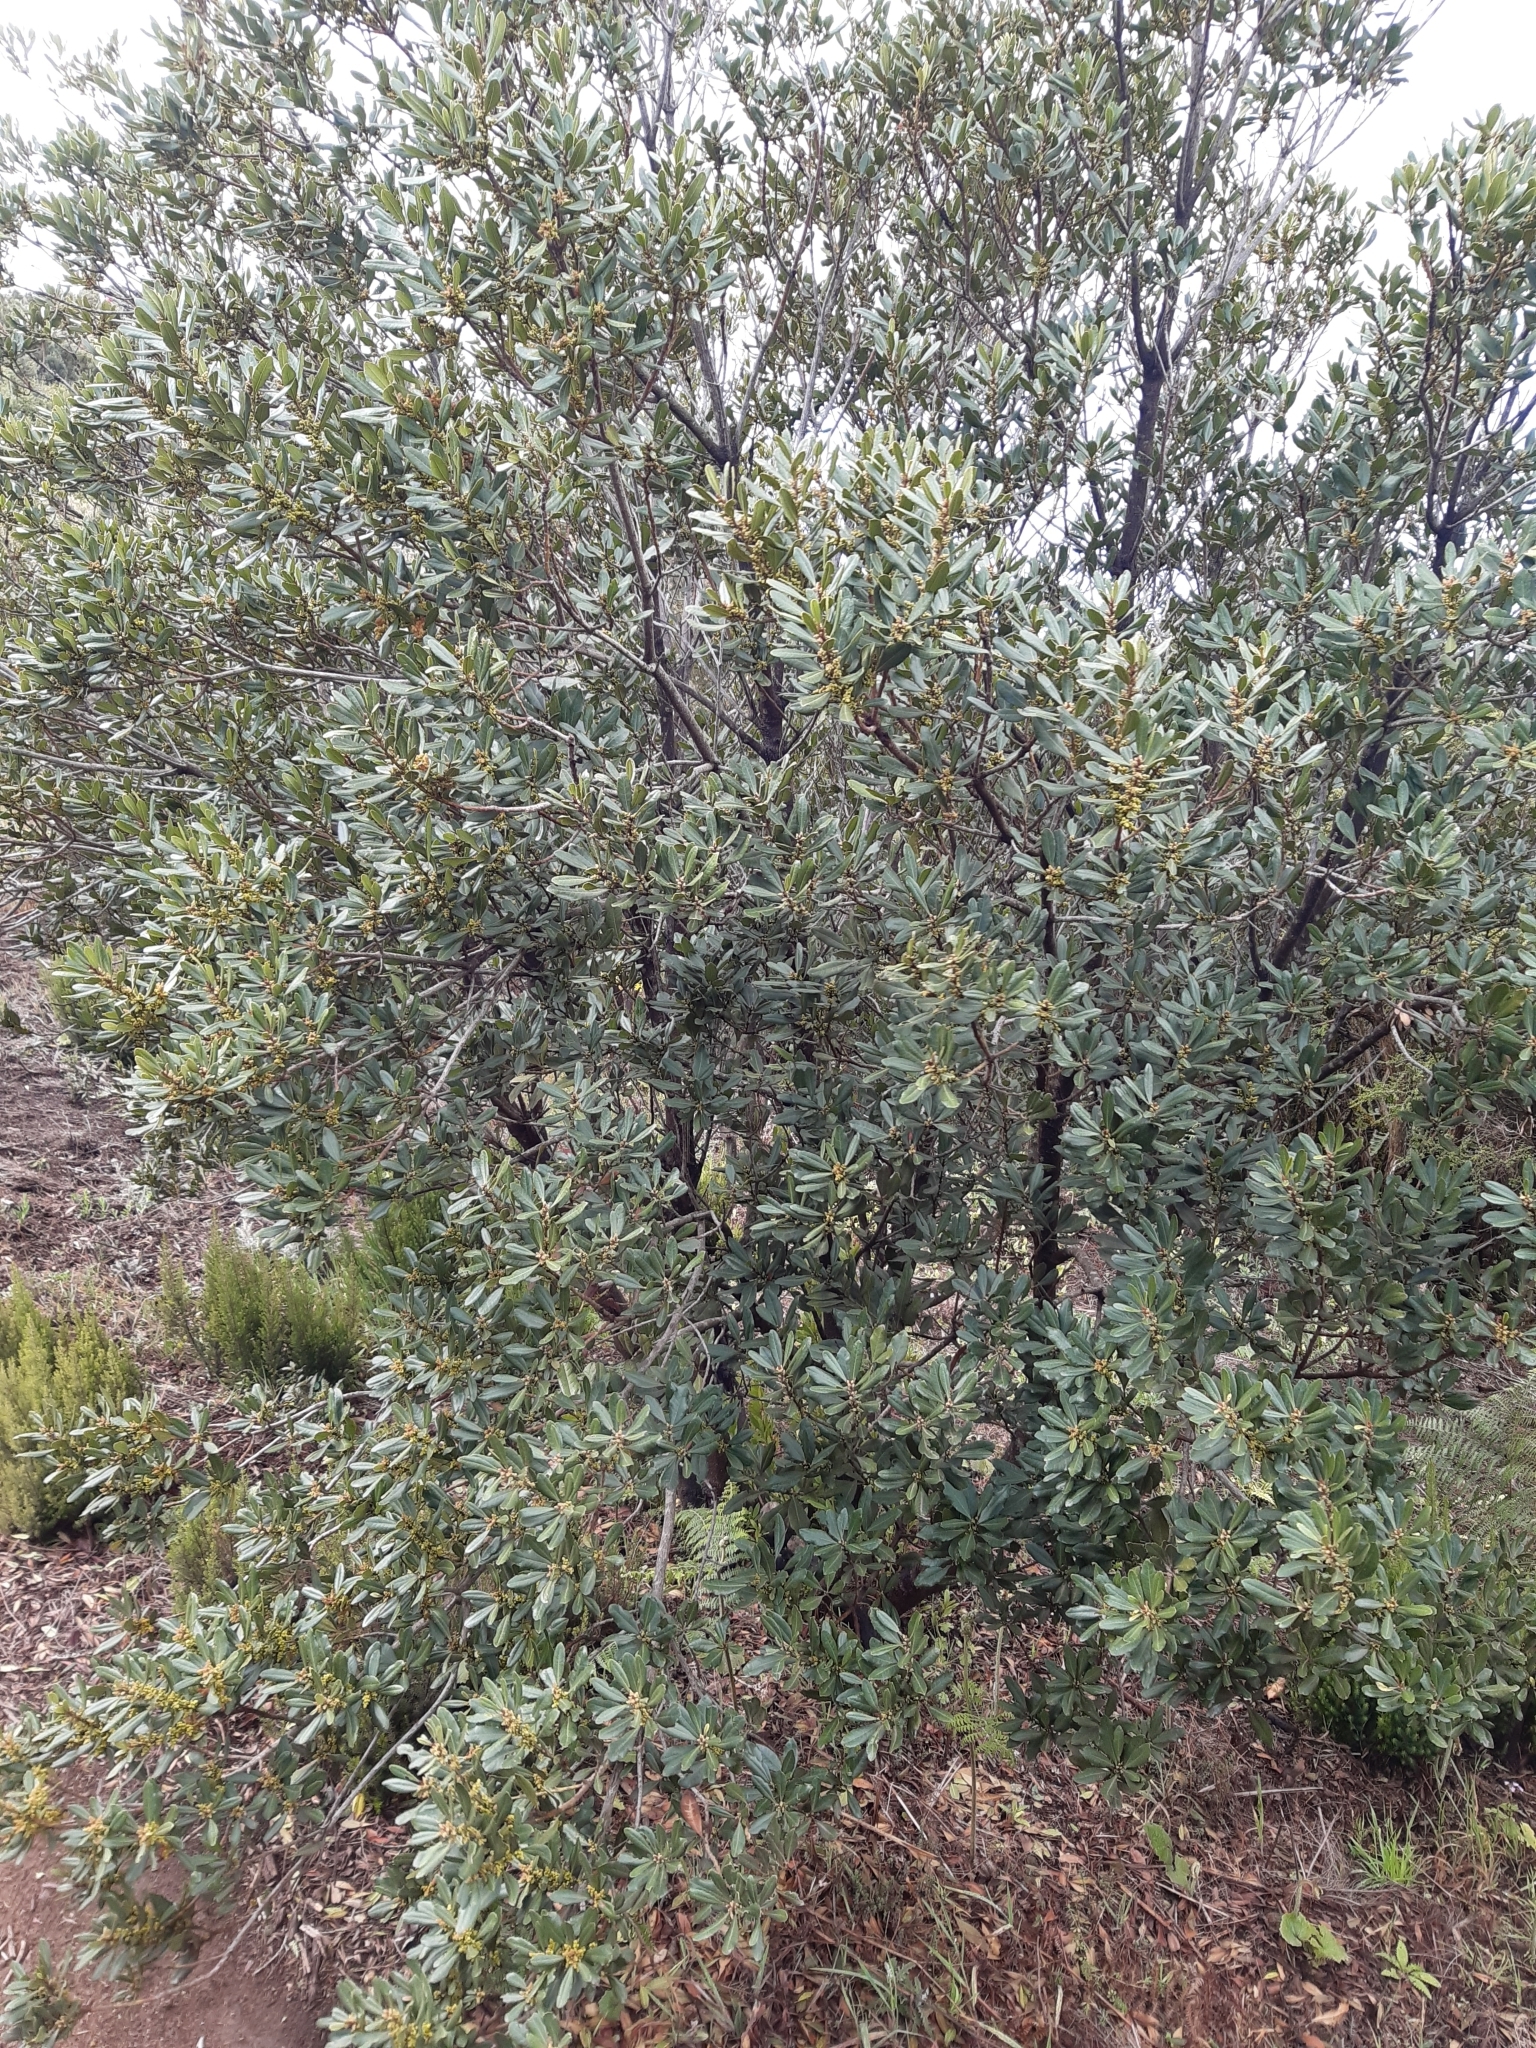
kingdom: Plantae
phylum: Tracheophyta
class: Magnoliopsida
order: Fagales
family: Myricaceae
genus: Morella
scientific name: Morella faya
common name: Firetree
